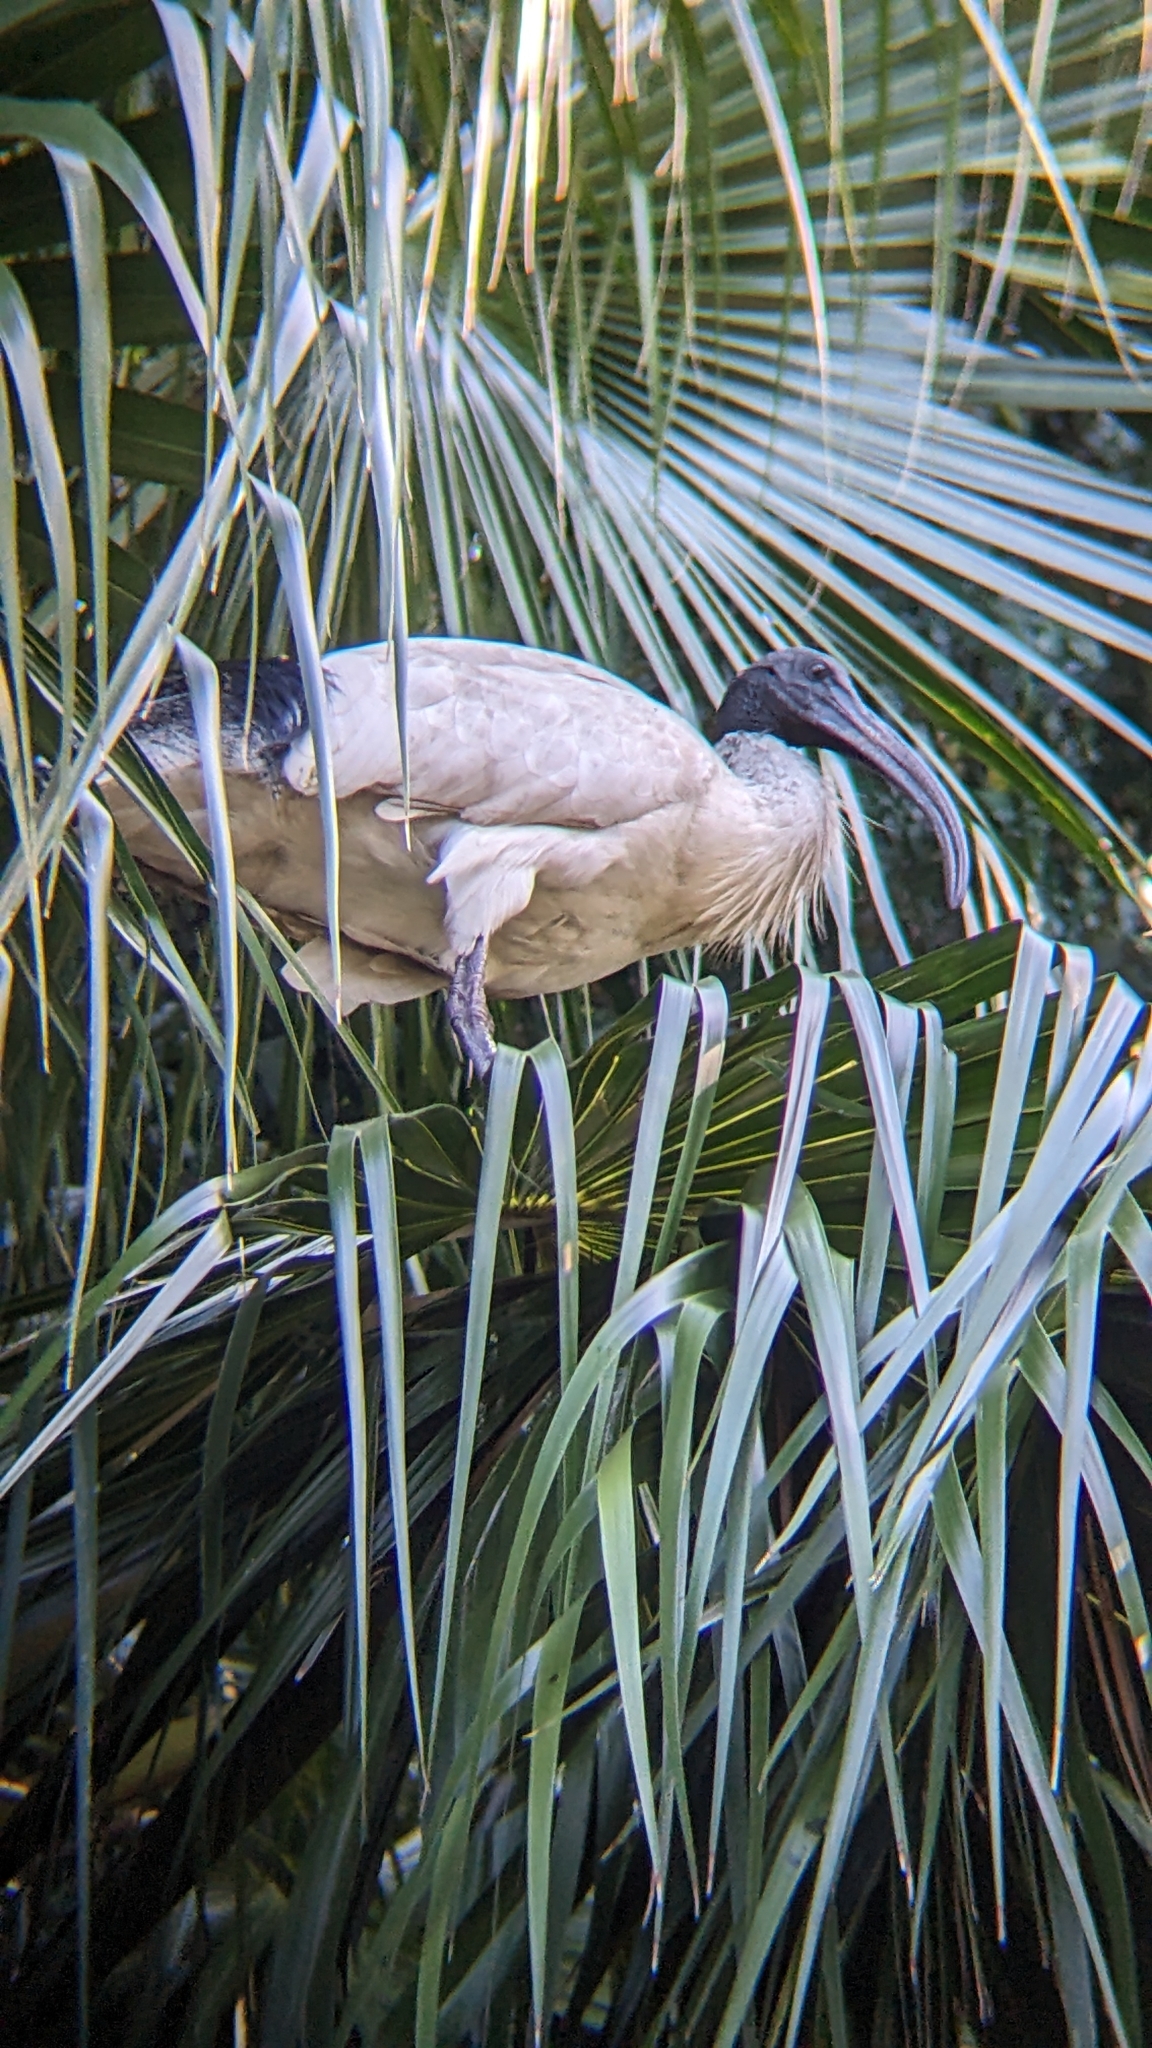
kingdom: Animalia
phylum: Chordata
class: Aves
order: Pelecaniformes
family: Threskiornithidae
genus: Threskiornis
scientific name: Threskiornis molucca
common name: Australian white ibis
